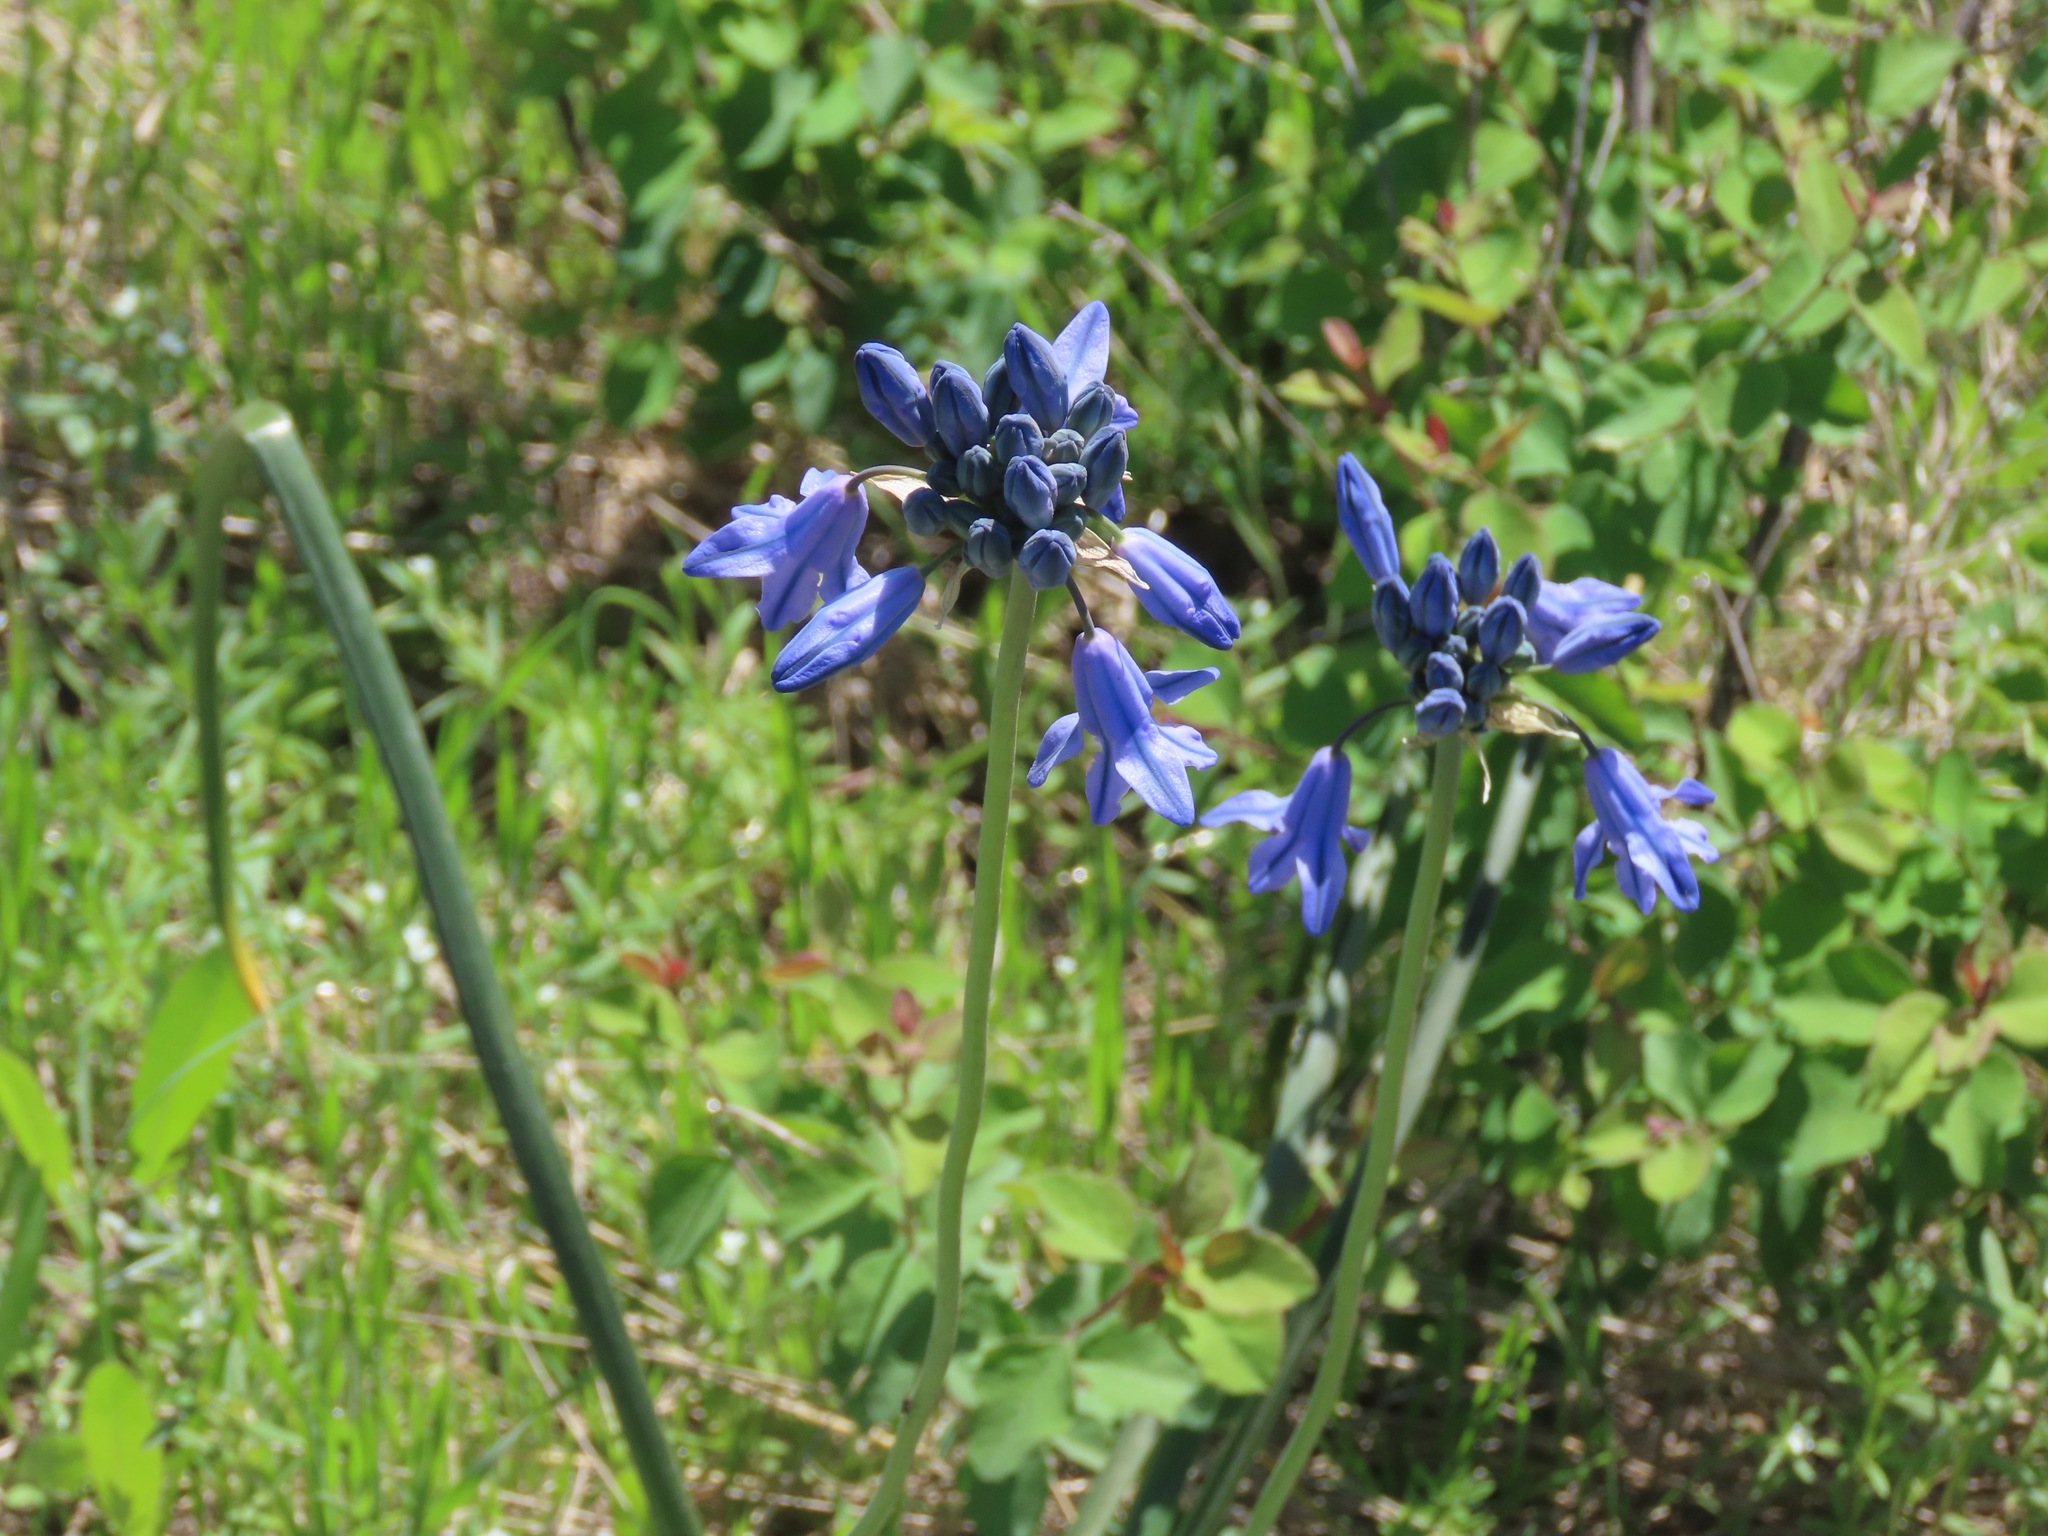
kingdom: Plantae
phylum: Tracheophyta
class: Liliopsida
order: Asparagales
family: Asparagaceae
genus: Triteleia
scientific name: Triteleia grandiflora
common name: Wild hyacinth
